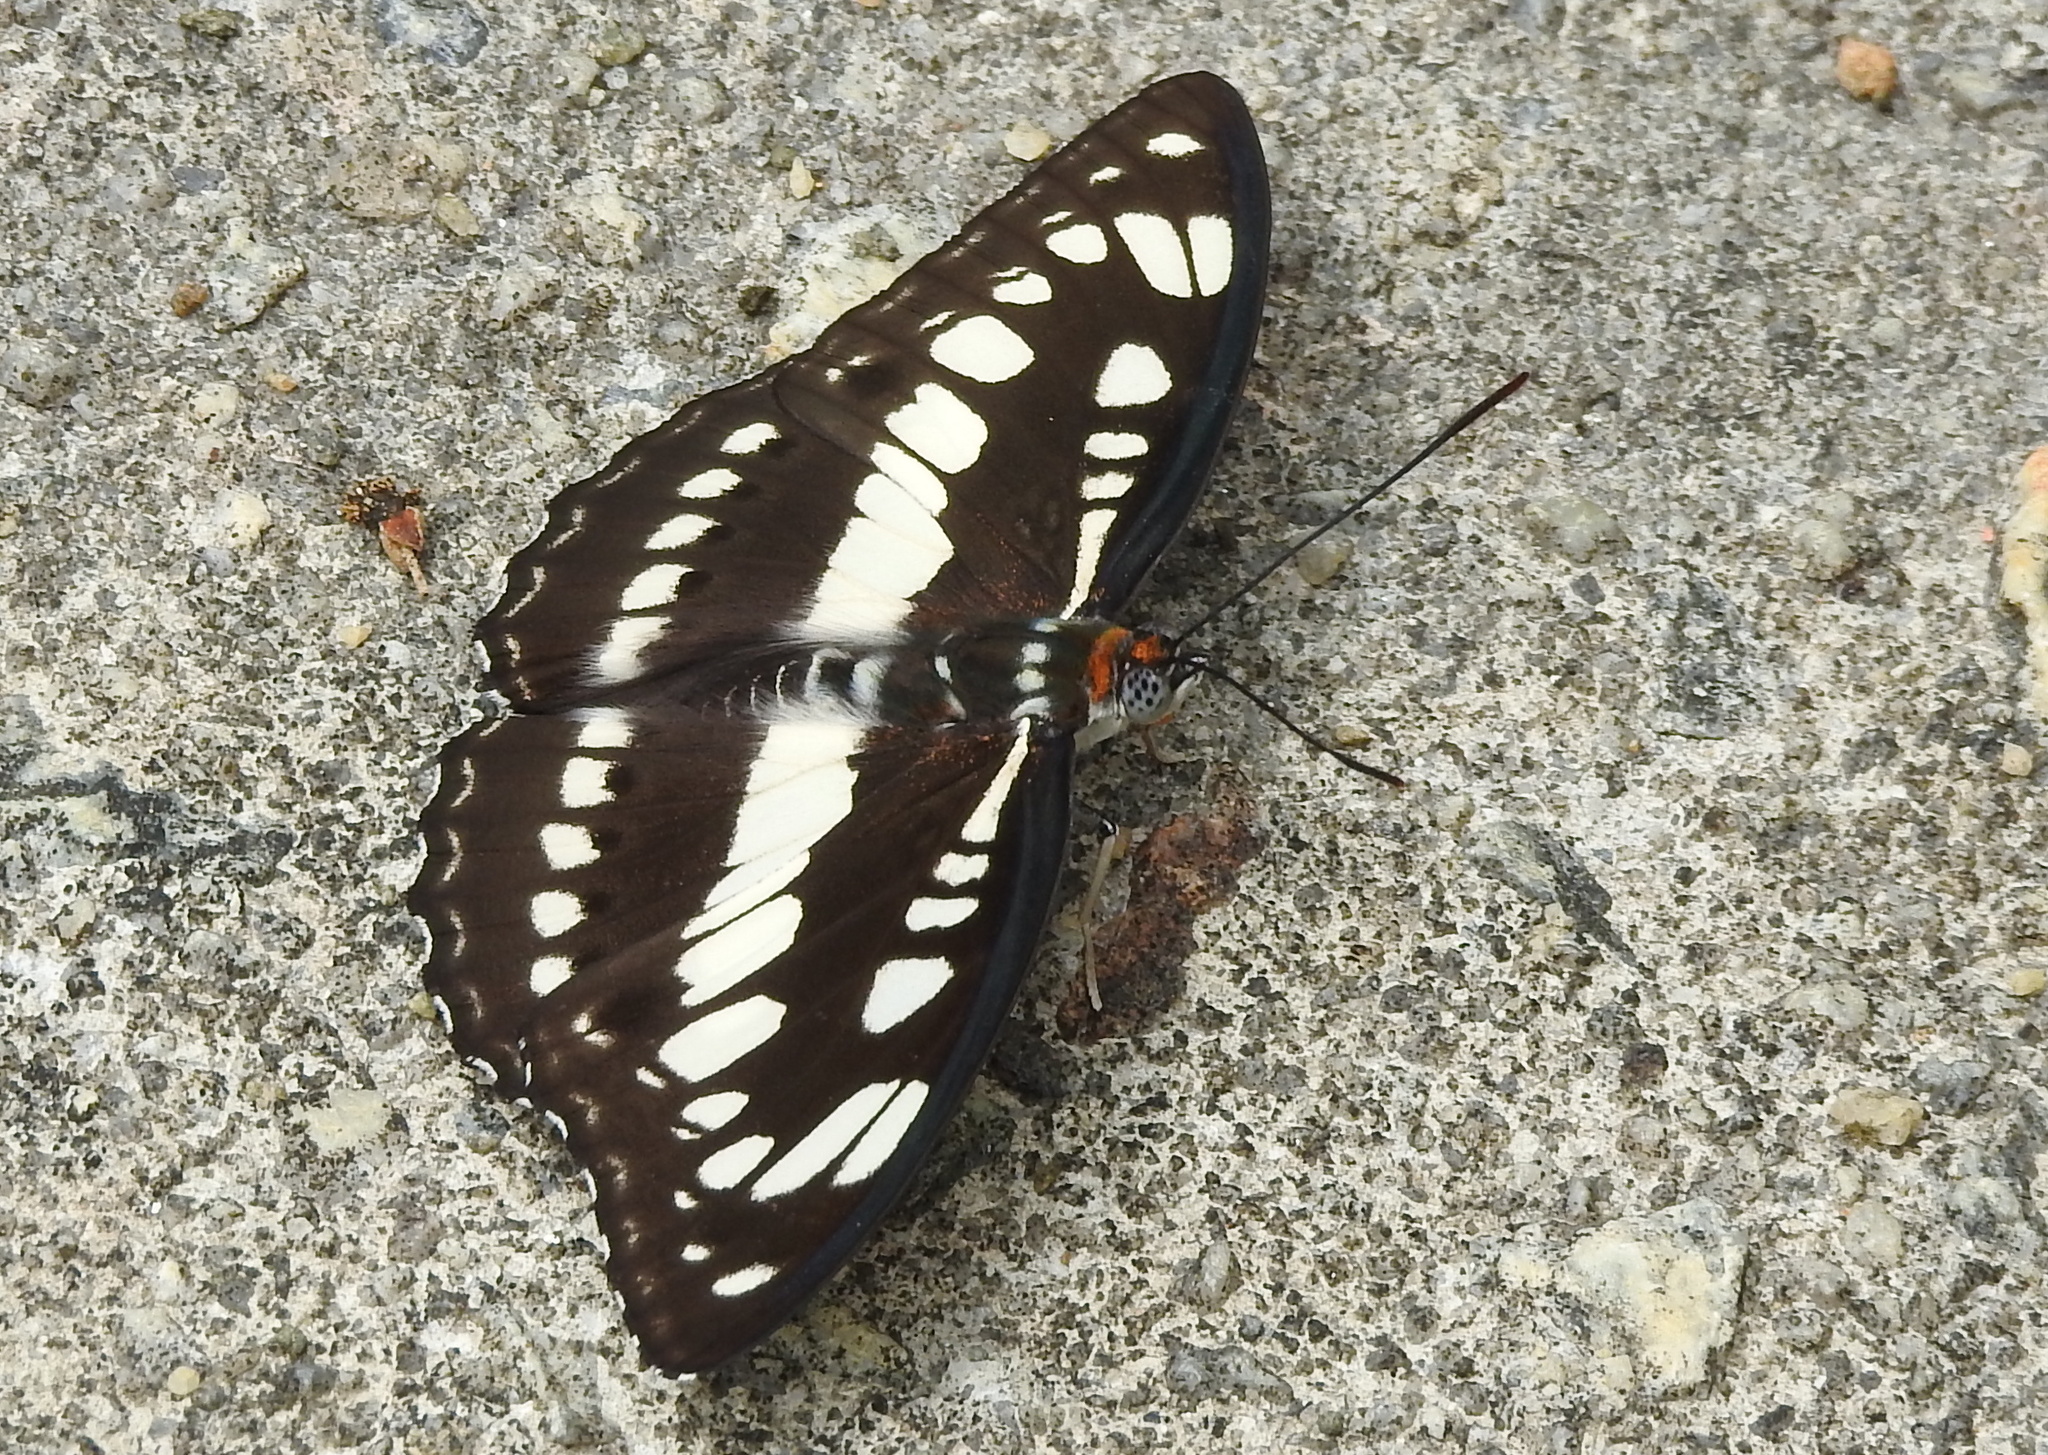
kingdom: Animalia
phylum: Arthropoda
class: Insecta
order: Lepidoptera
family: Nymphalidae
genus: Parathyma
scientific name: Parathyma perius
